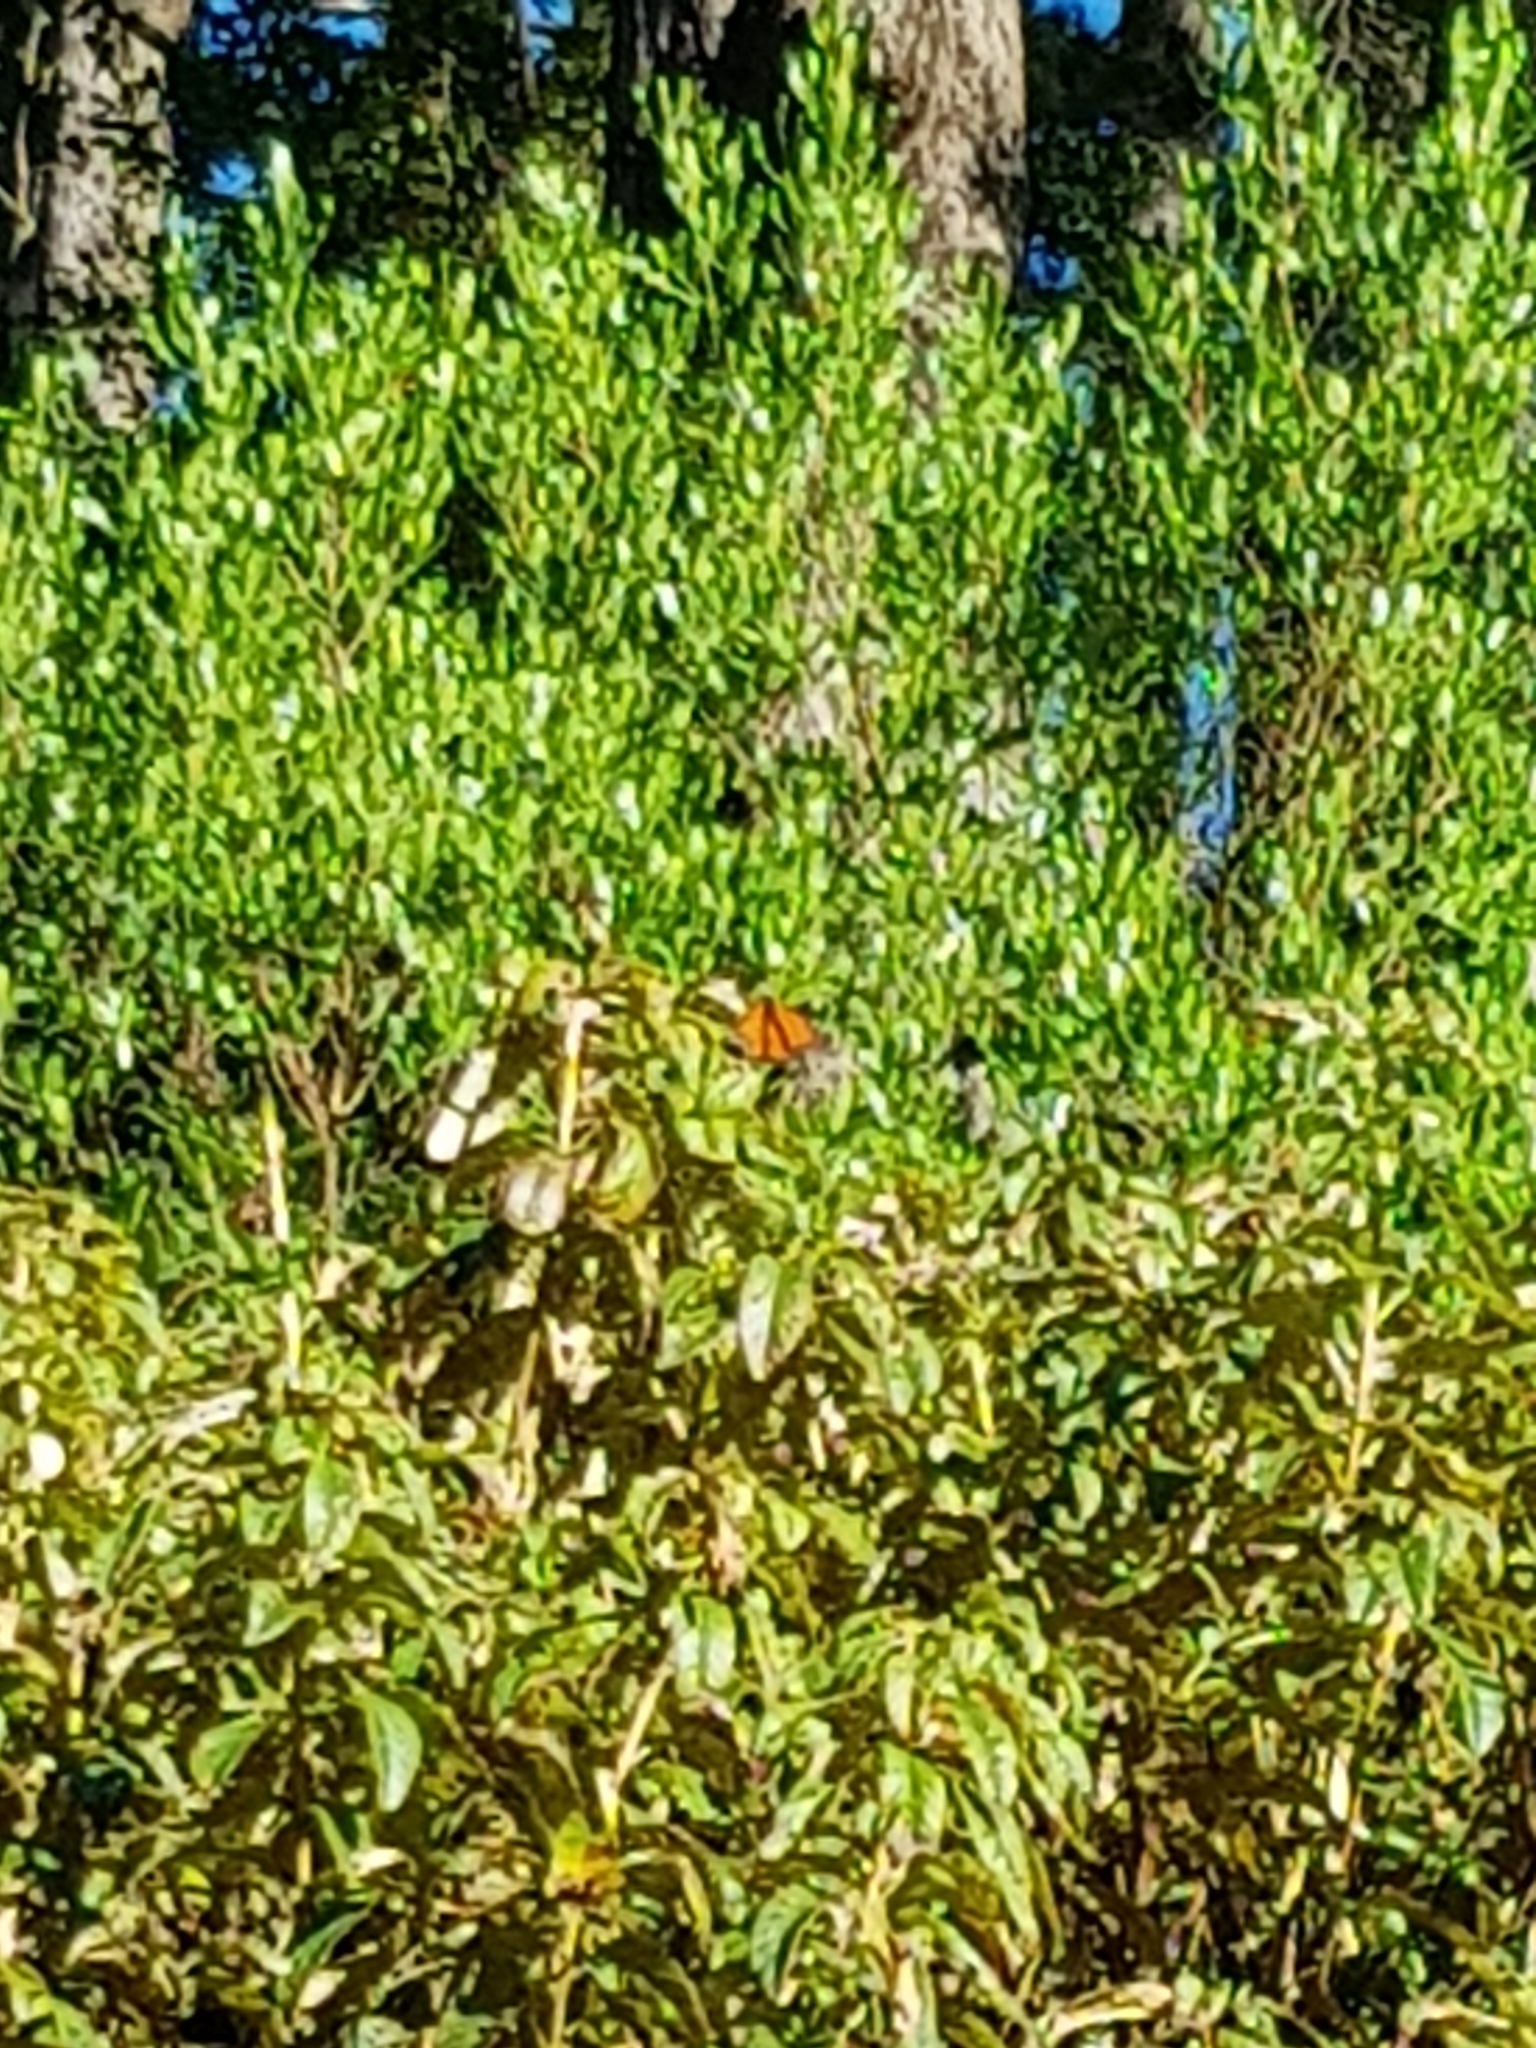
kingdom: Animalia
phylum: Arthropoda
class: Insecta
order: Lepidoptera
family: Nymphalidae
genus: Danaus
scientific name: Danaus plexippus
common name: Monarch
